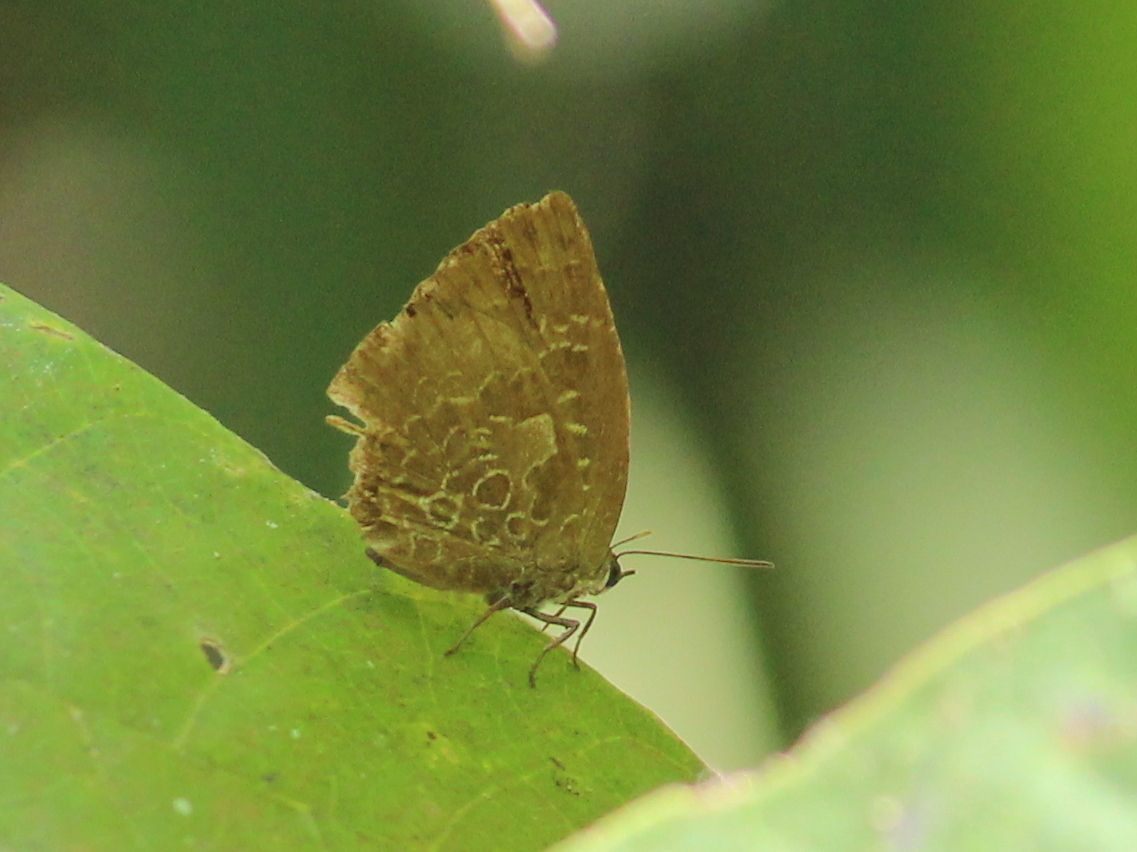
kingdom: Animalia
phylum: Arthropoda
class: Insecta
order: Lepidoptera
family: Lycaenidae
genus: Arhopala
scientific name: Arhopala bazaloides
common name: Tamil oakblue
